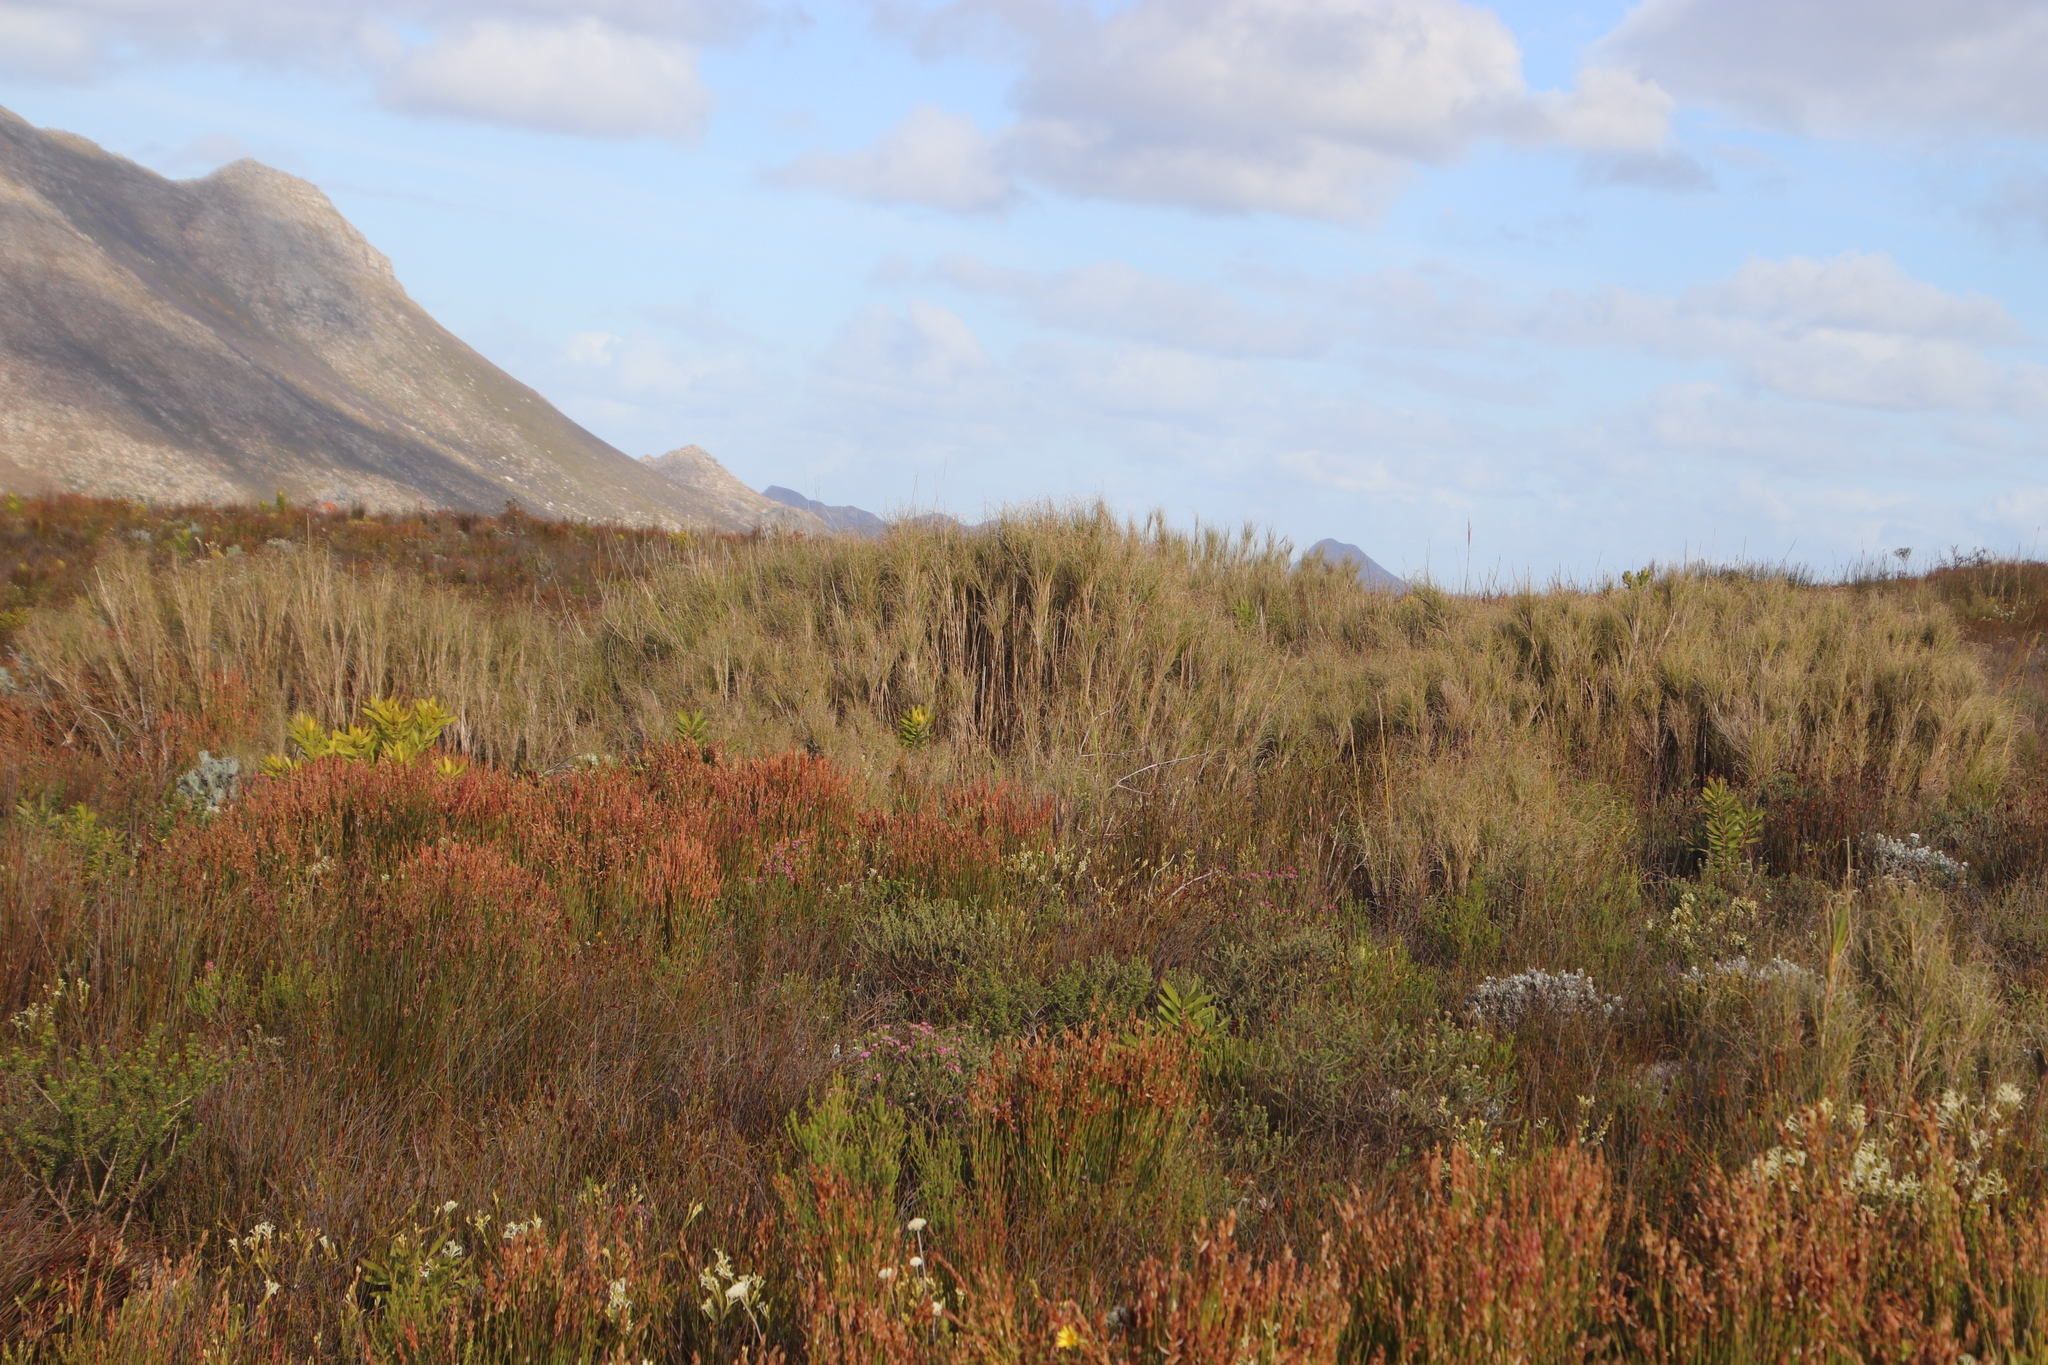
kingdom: Plantae
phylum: Tracheophyta
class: Liliopsida
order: Poales
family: Poaceae
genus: Pseudopentameris
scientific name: Pseudopentameris macrantha
